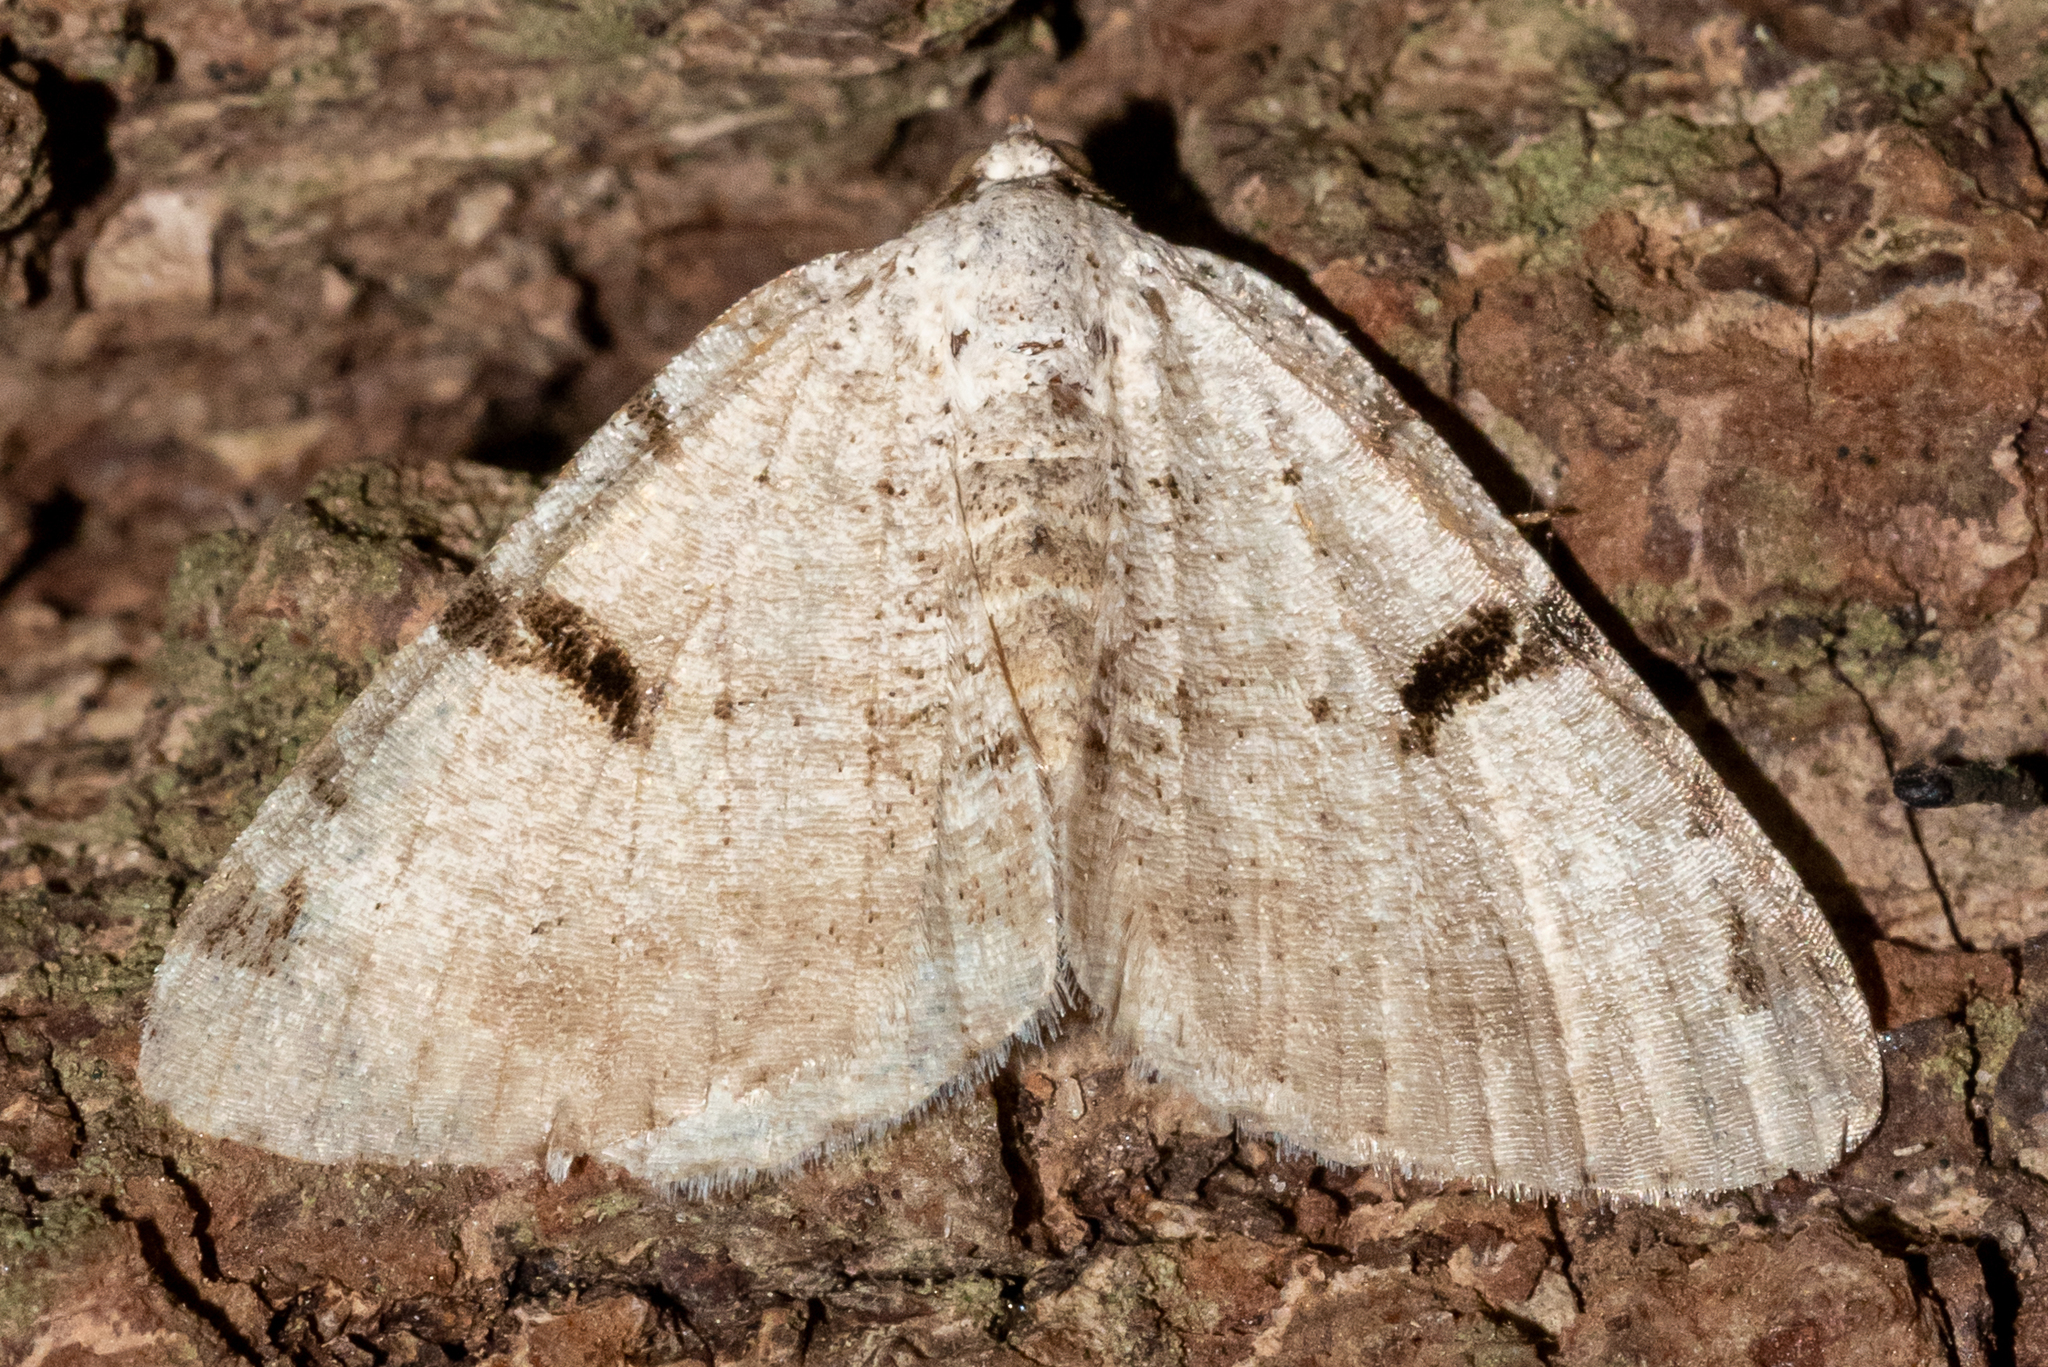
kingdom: Animalia
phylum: Arthropoda
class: Insecta
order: Lepidoptera
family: Geometridae
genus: Macaria
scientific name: Macaria subcessaria
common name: Barred angle
